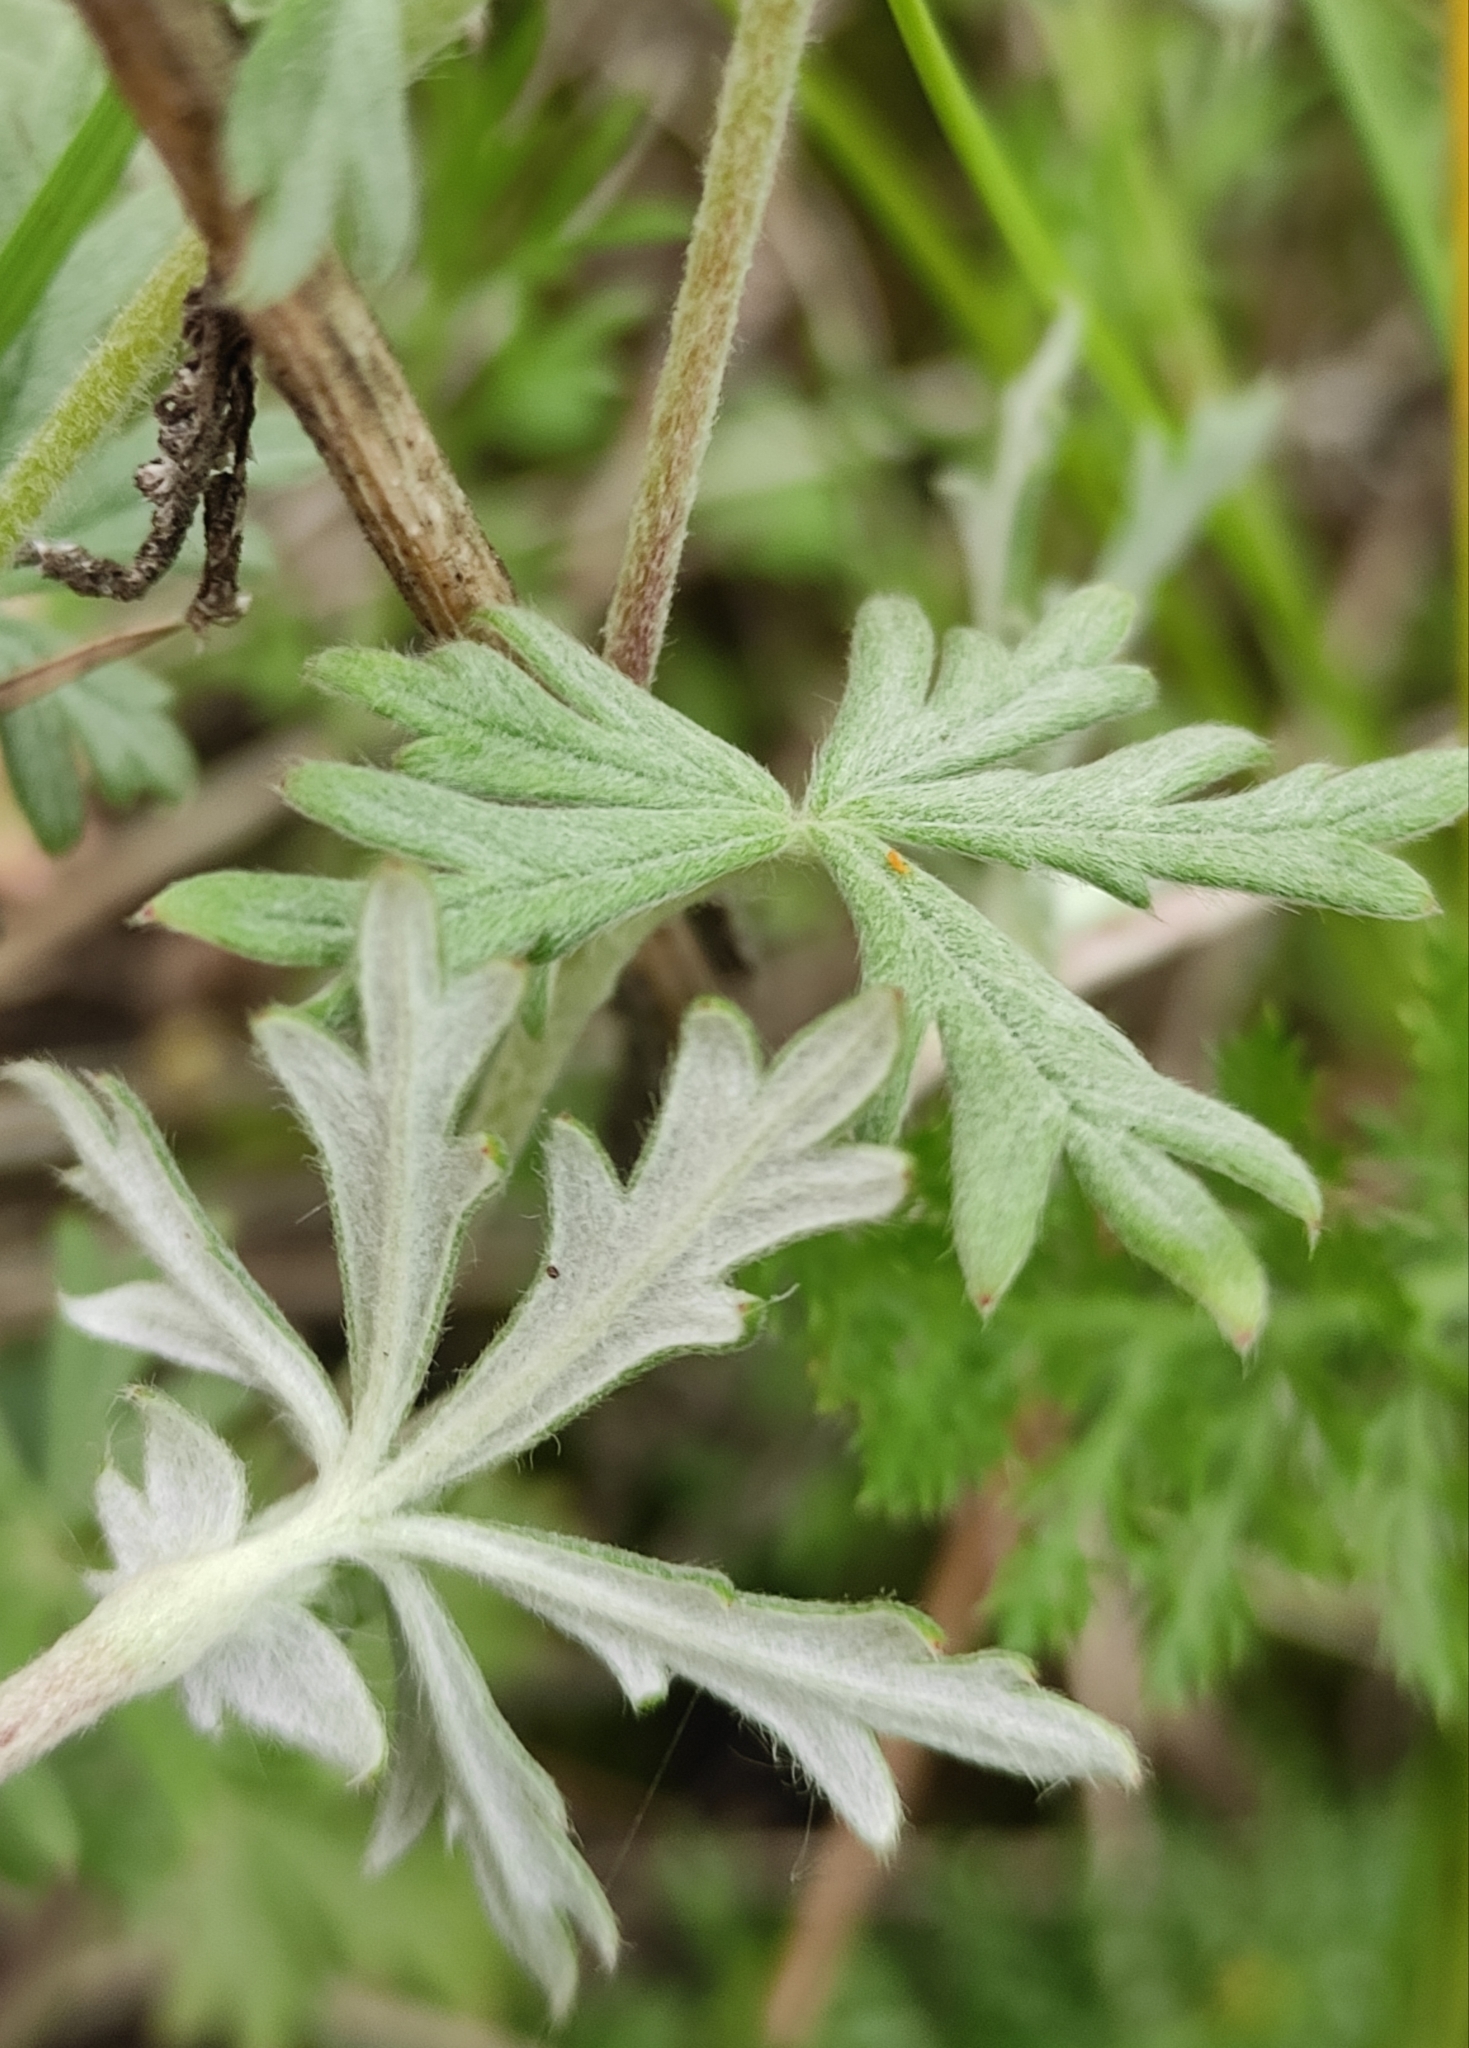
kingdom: Plantae
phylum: Tracheophyta
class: Magnoliopsida
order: Rosales
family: Rosaceae
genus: Potentilla
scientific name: Potentilla argentea
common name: Hoary cinquefoil
